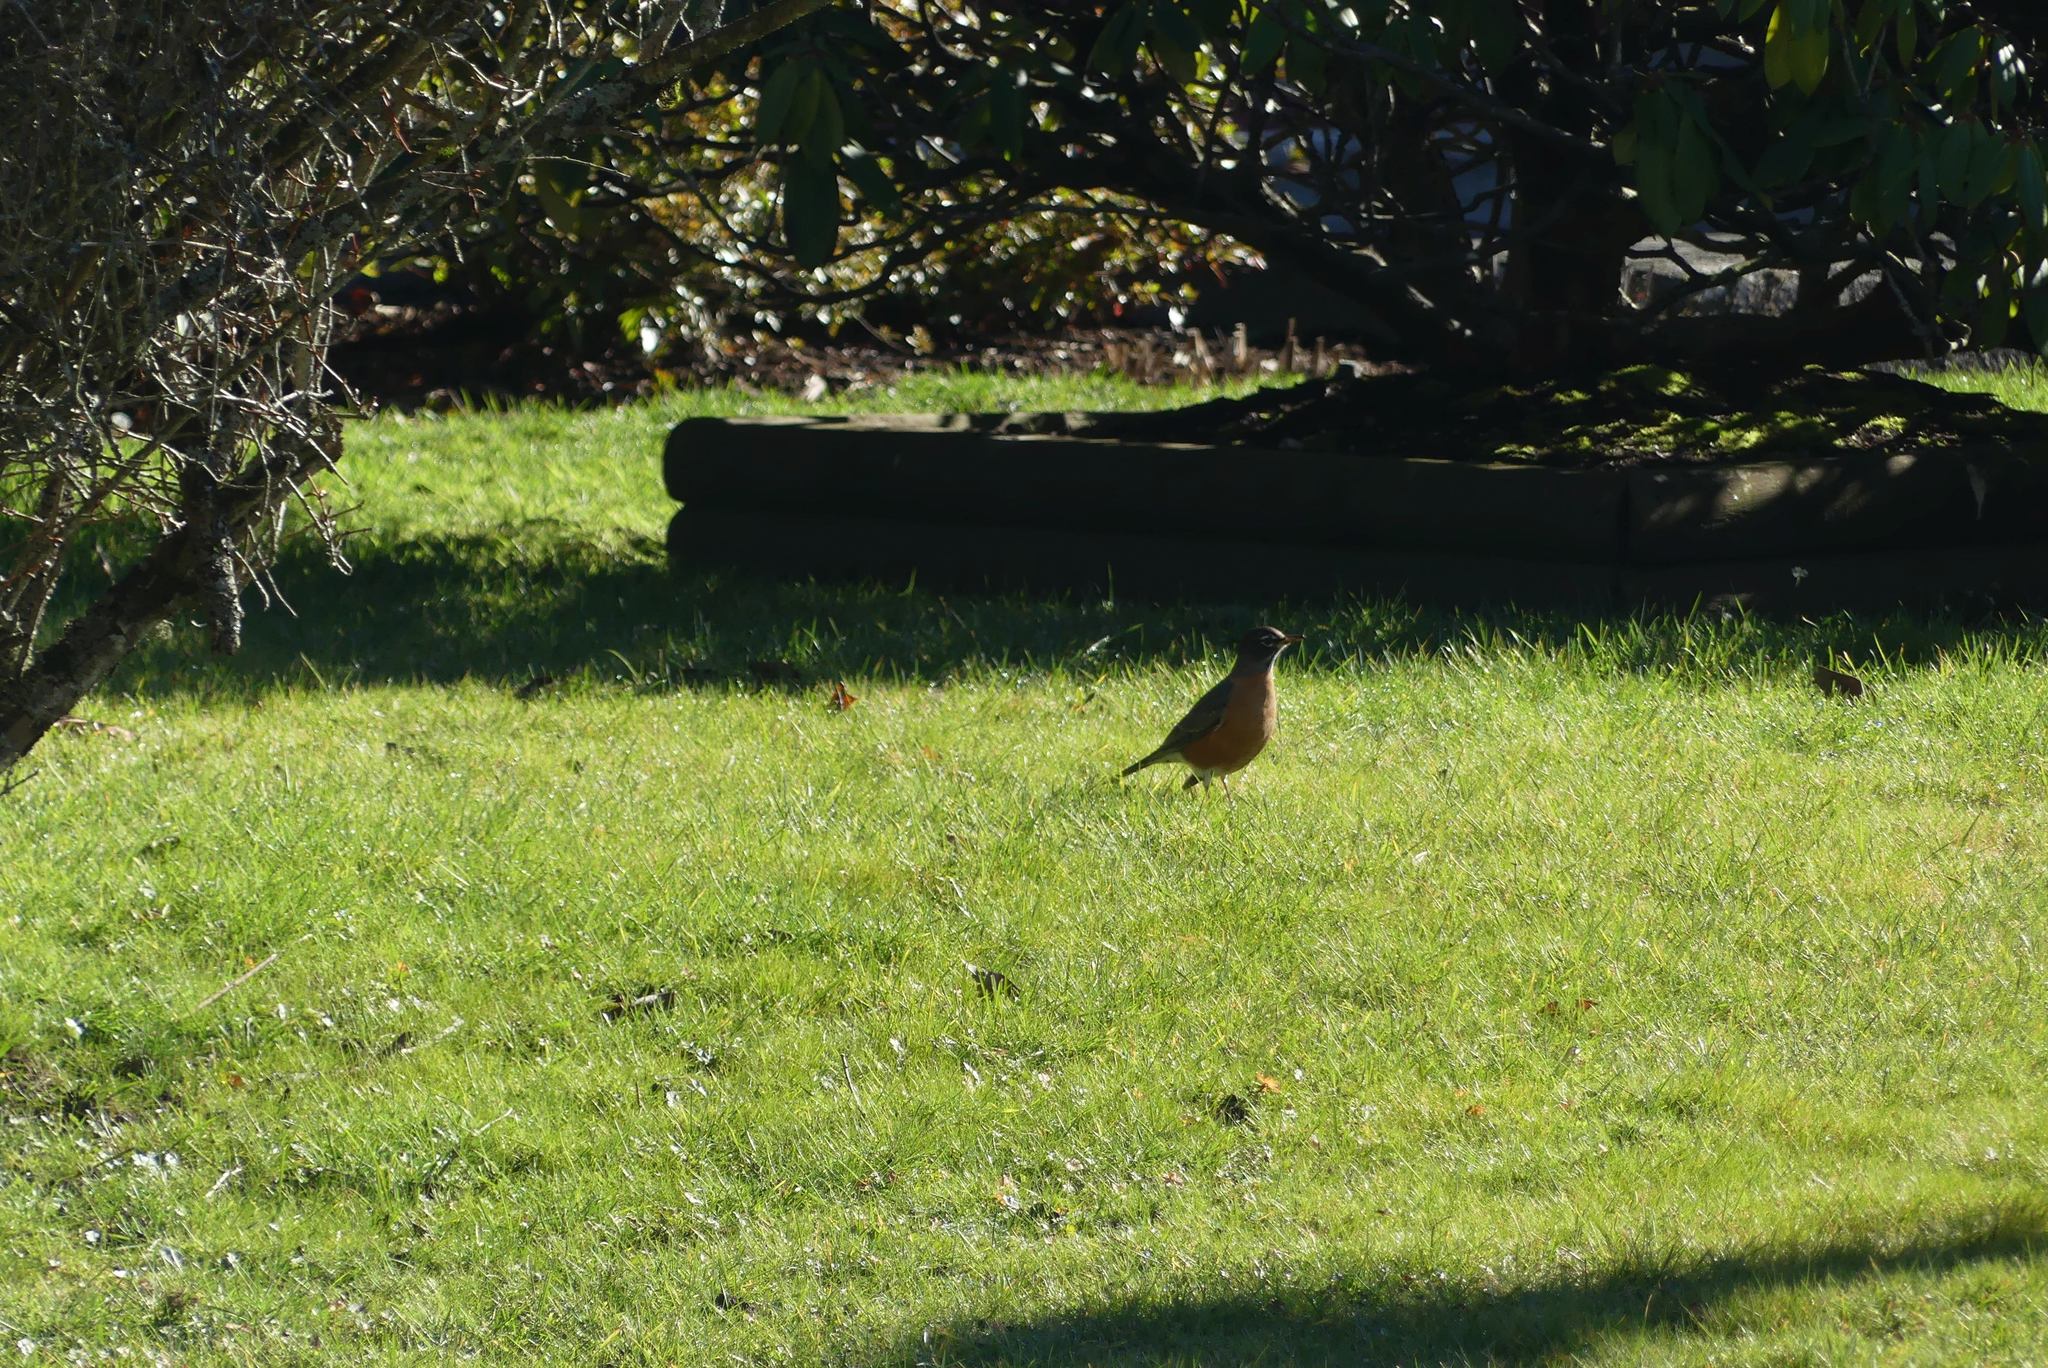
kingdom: Animalia
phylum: Chordata
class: Aves
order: Passeriformes
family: Turdidae
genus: Turdus
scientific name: Turdus migratorius
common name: American robin
